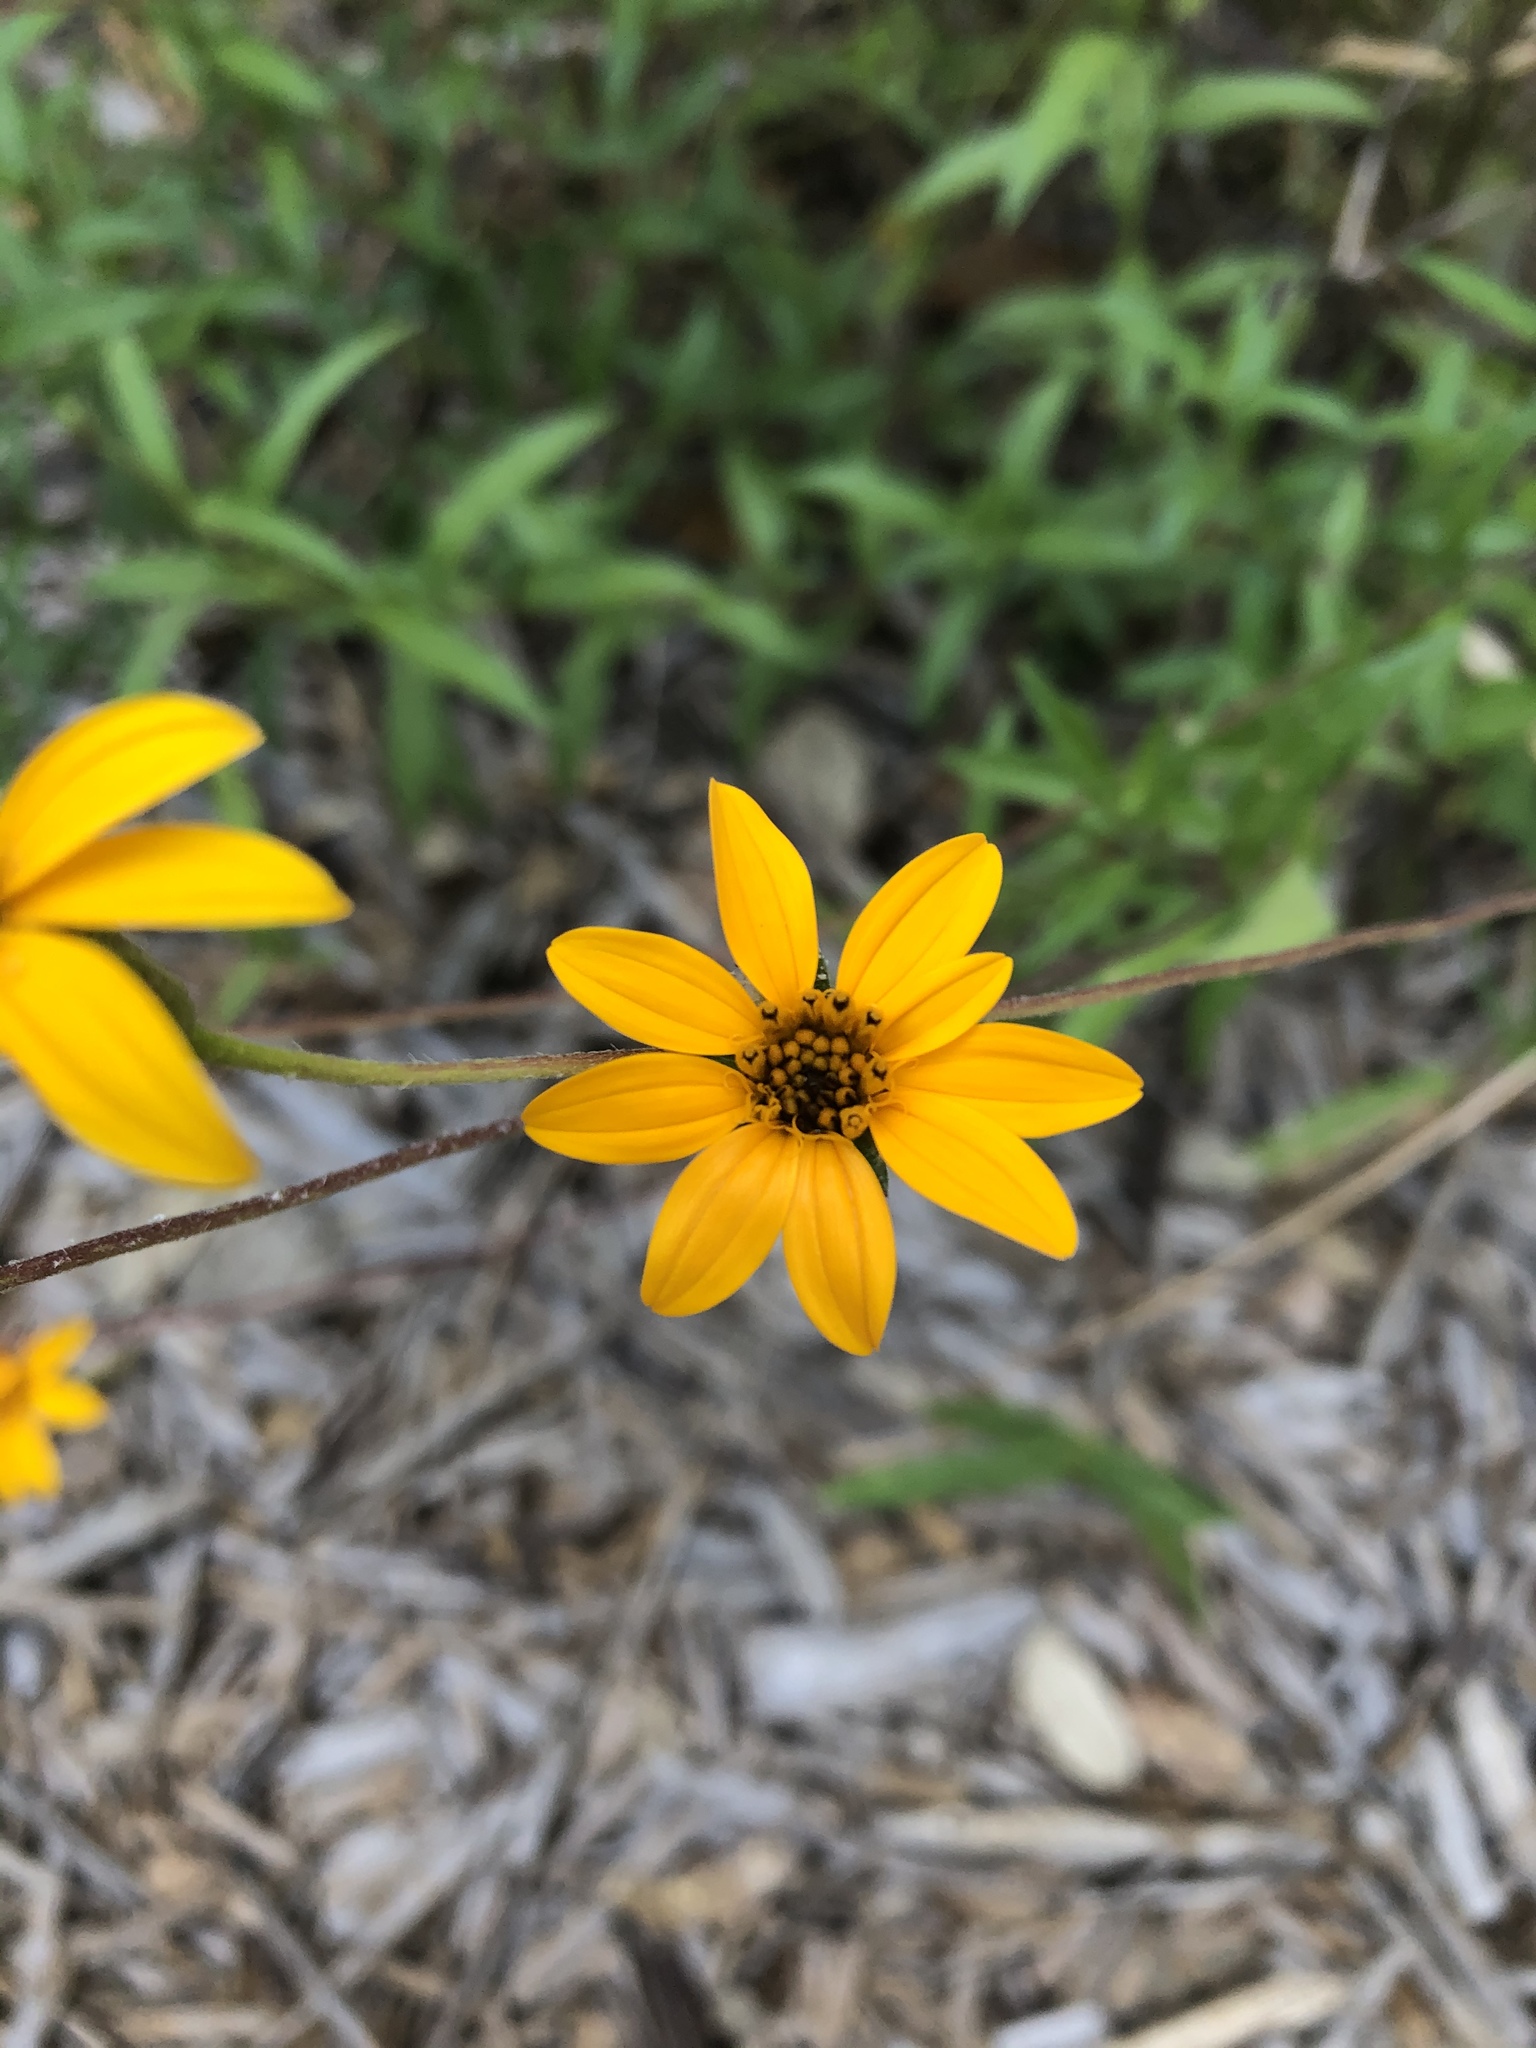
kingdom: Plantae
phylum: Tracheophyta
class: Magnoliopsida
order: Asterales
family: Asteraceae
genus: Wedelia
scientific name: Wedelia acapulcensis
